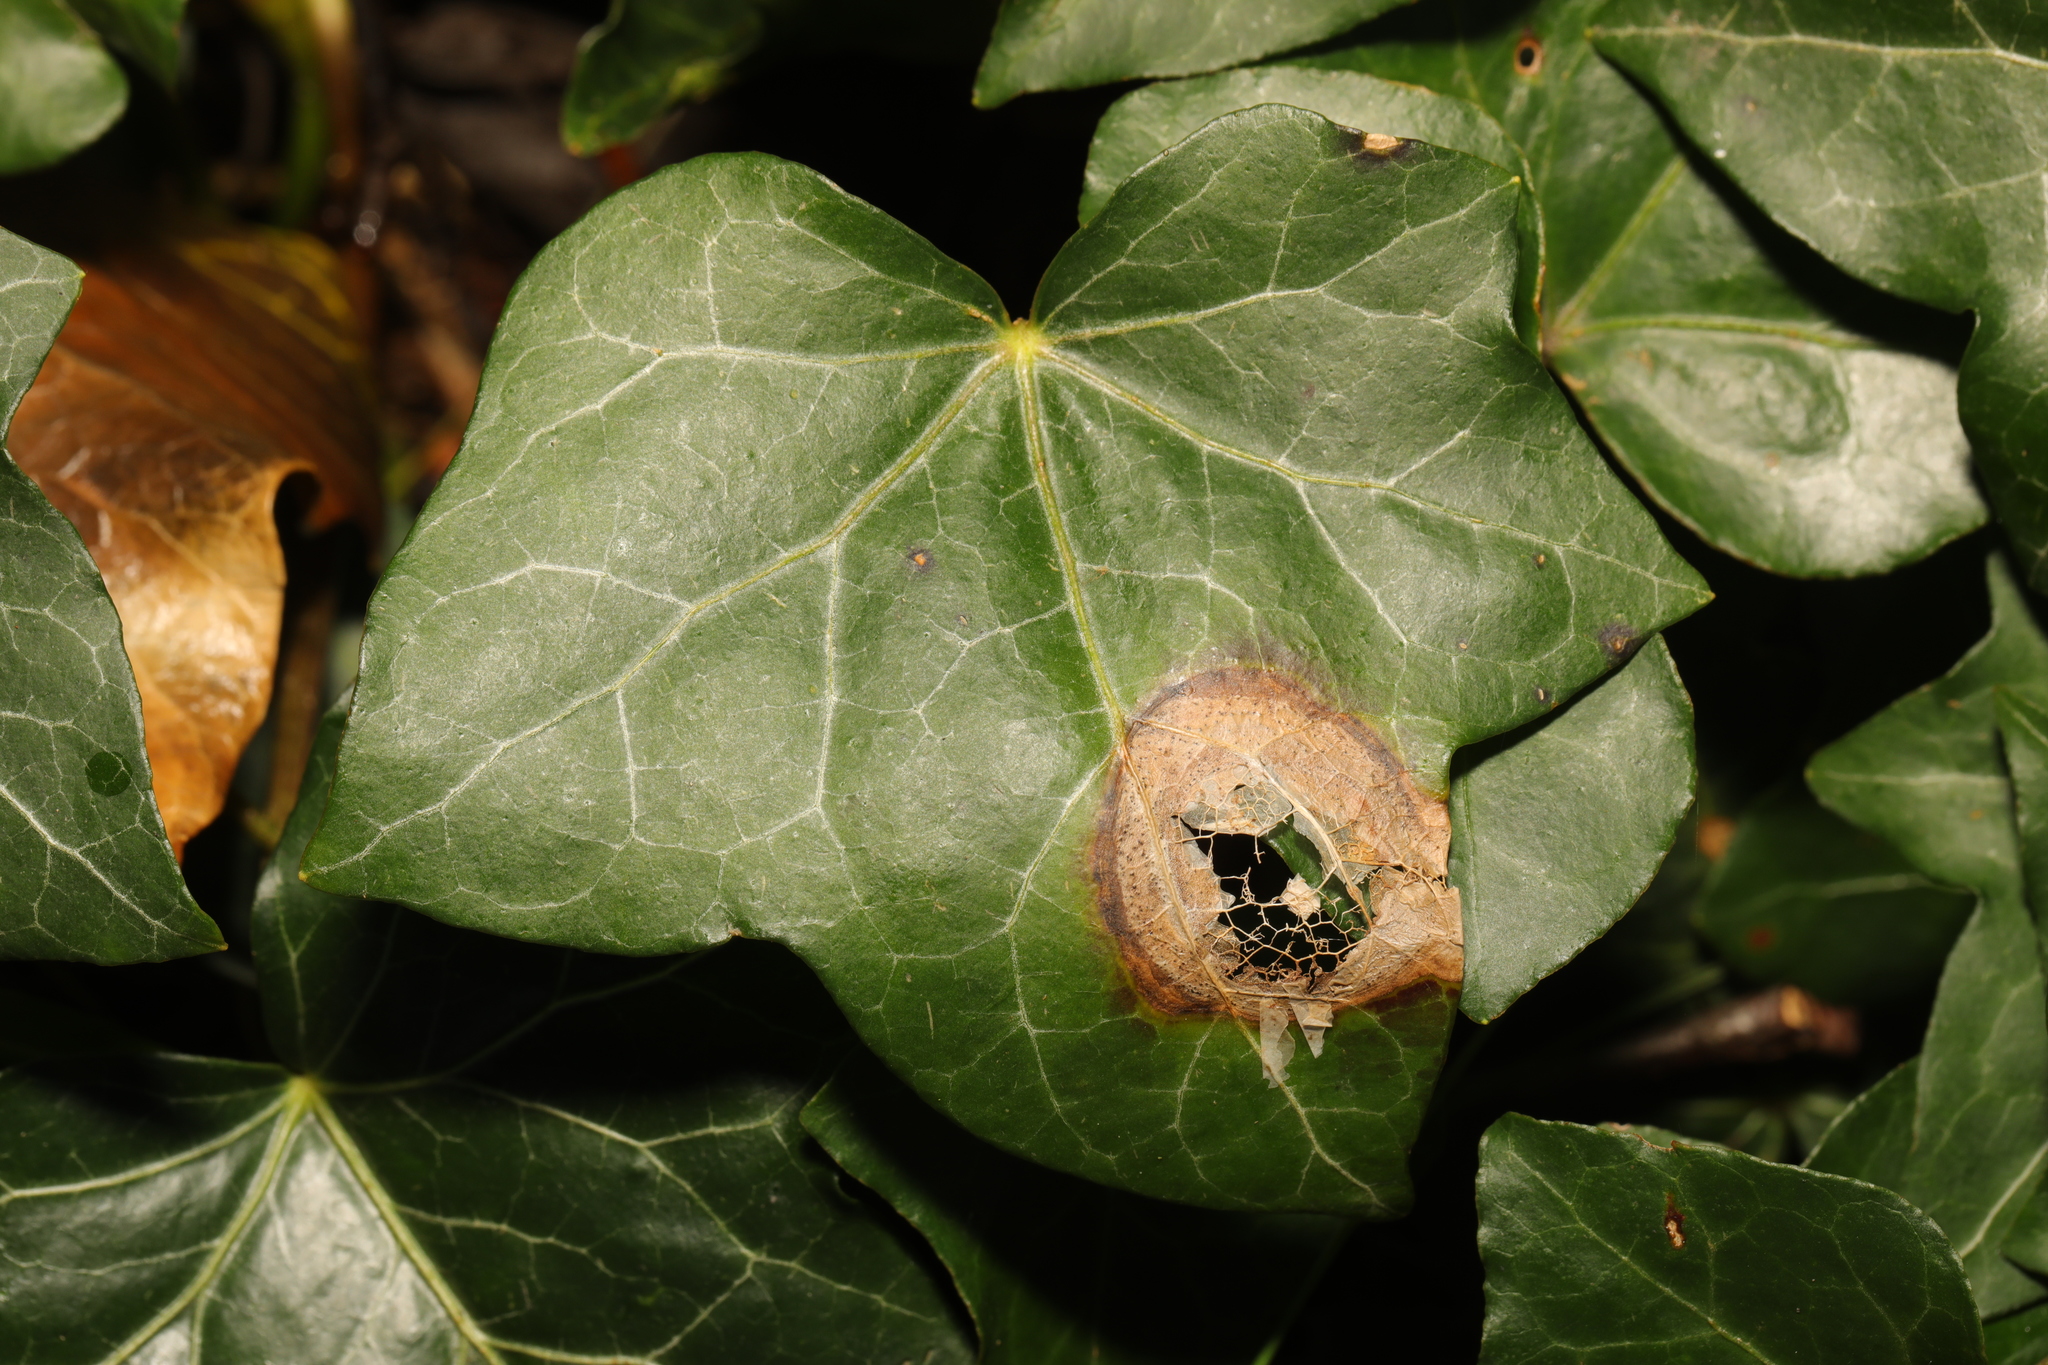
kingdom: Fungi
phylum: Ascomycota
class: Dothideomycetes
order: Pleosporales
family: Didymellaceae
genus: Boeremia
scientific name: Boeremia hedericola
